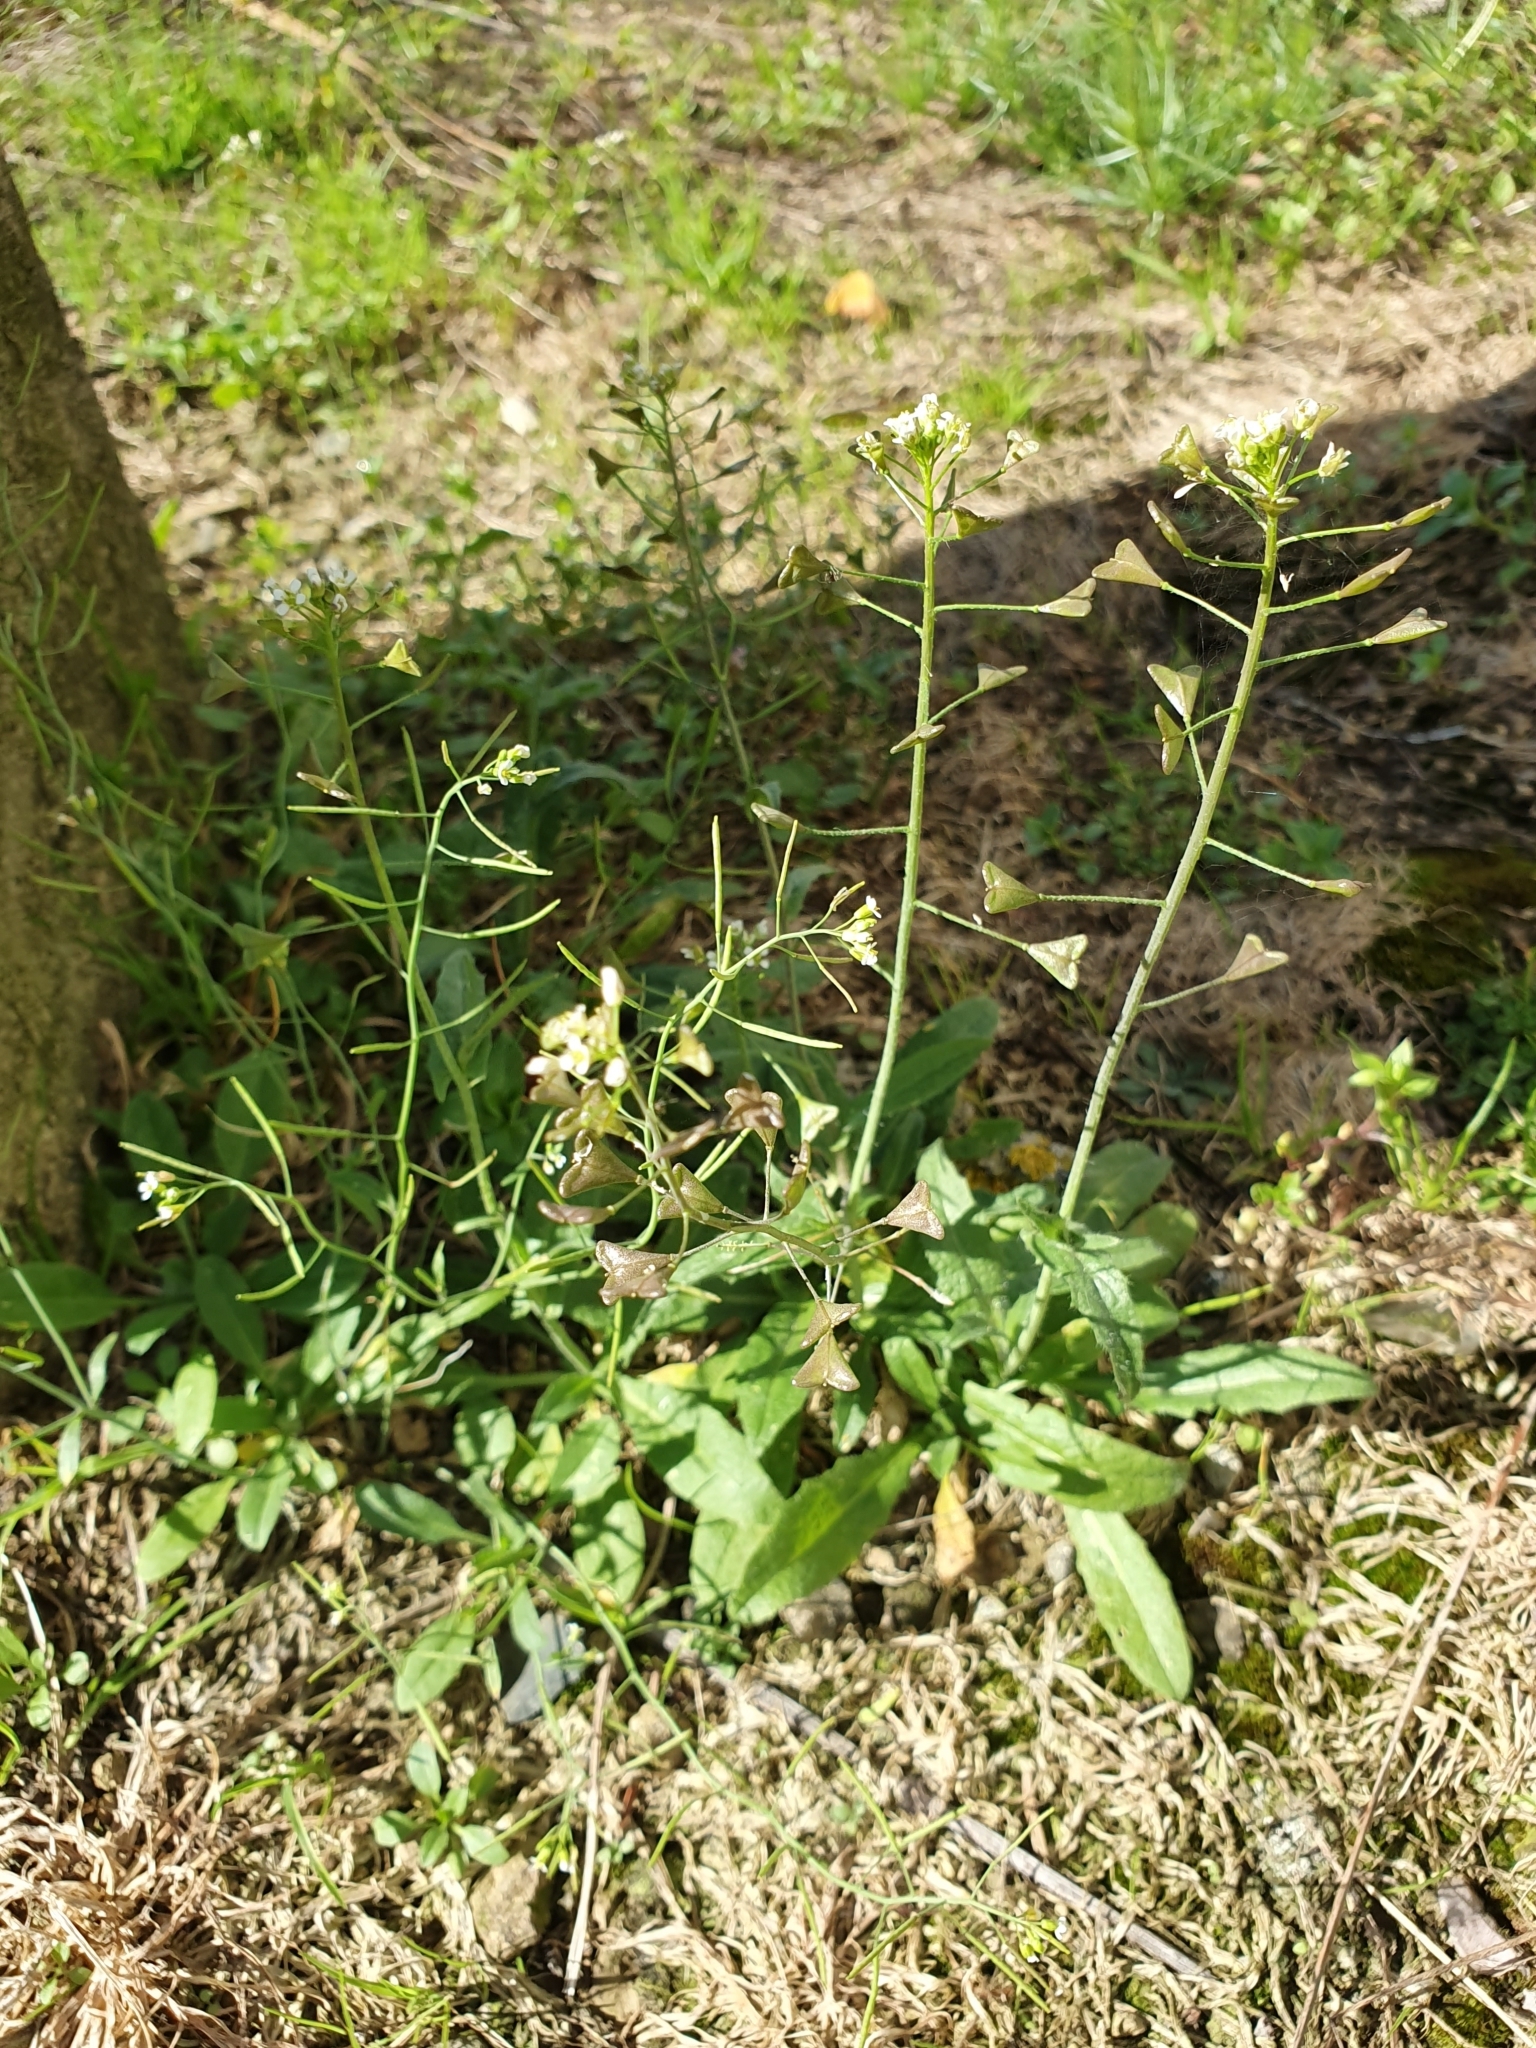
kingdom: Plantae
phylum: Tracheophyta
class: Magnoliopsida
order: Brassicales
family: Brassicaceae
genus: Capsella
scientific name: Capsella bursa-pastoris
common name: Shepherd's purse
